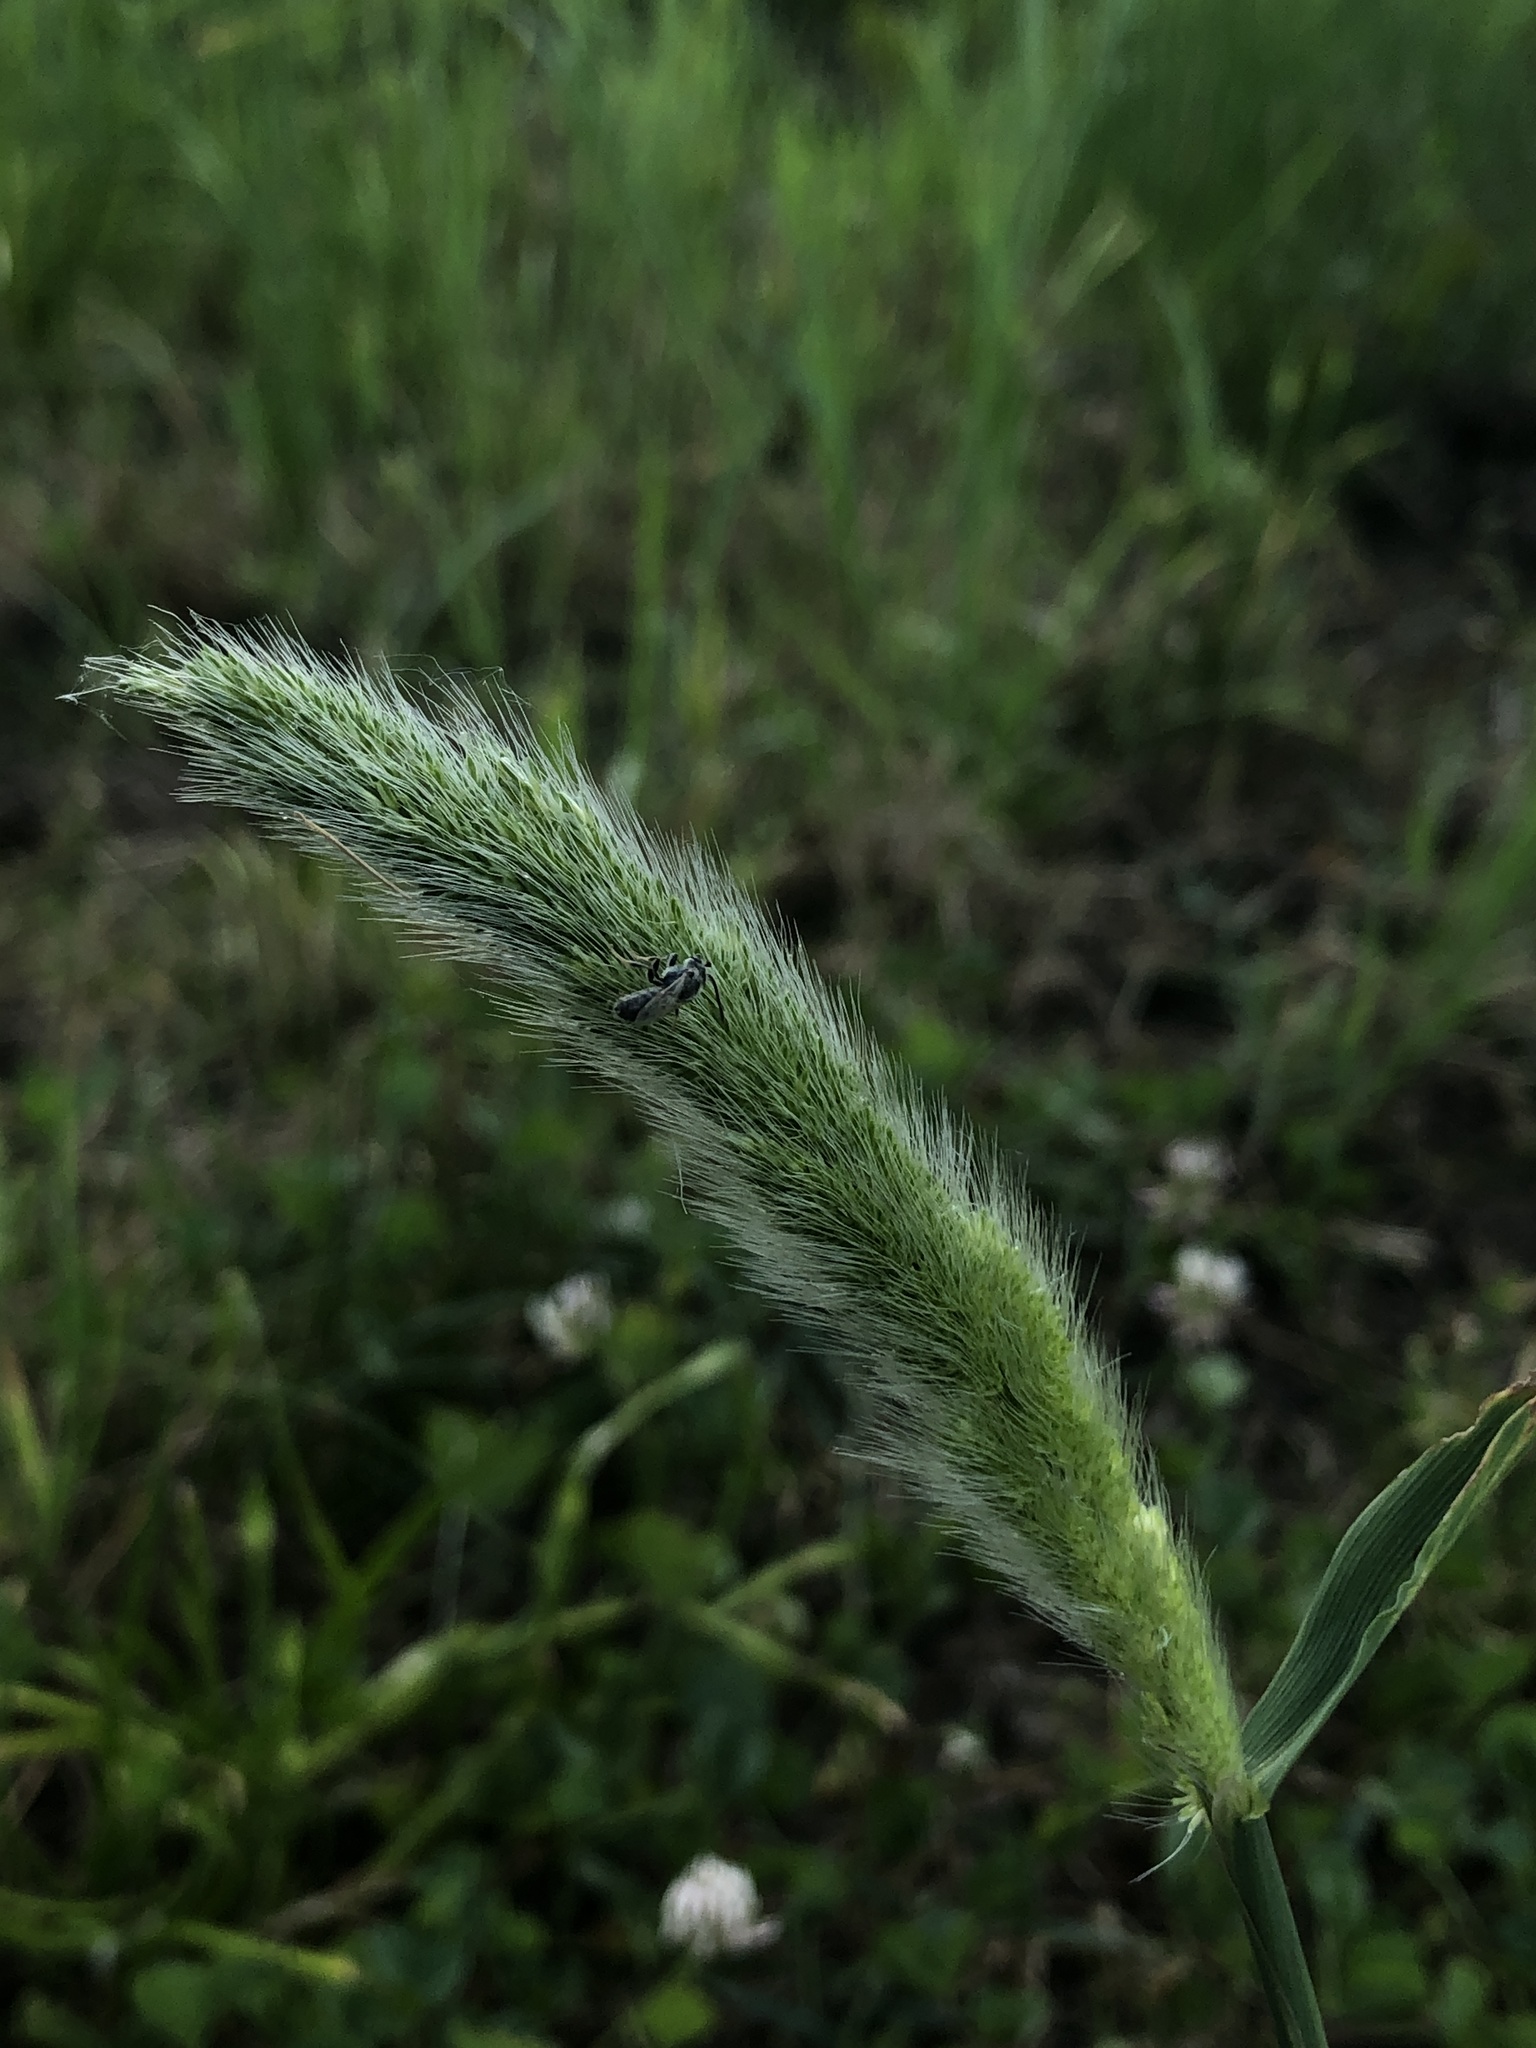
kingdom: Plantae
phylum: Tracheophyta
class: Liliopsida
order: Poales
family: Poaceae
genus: Polypogon
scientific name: Polypogon monspeliensis
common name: Annual rabbitsfoot grass
